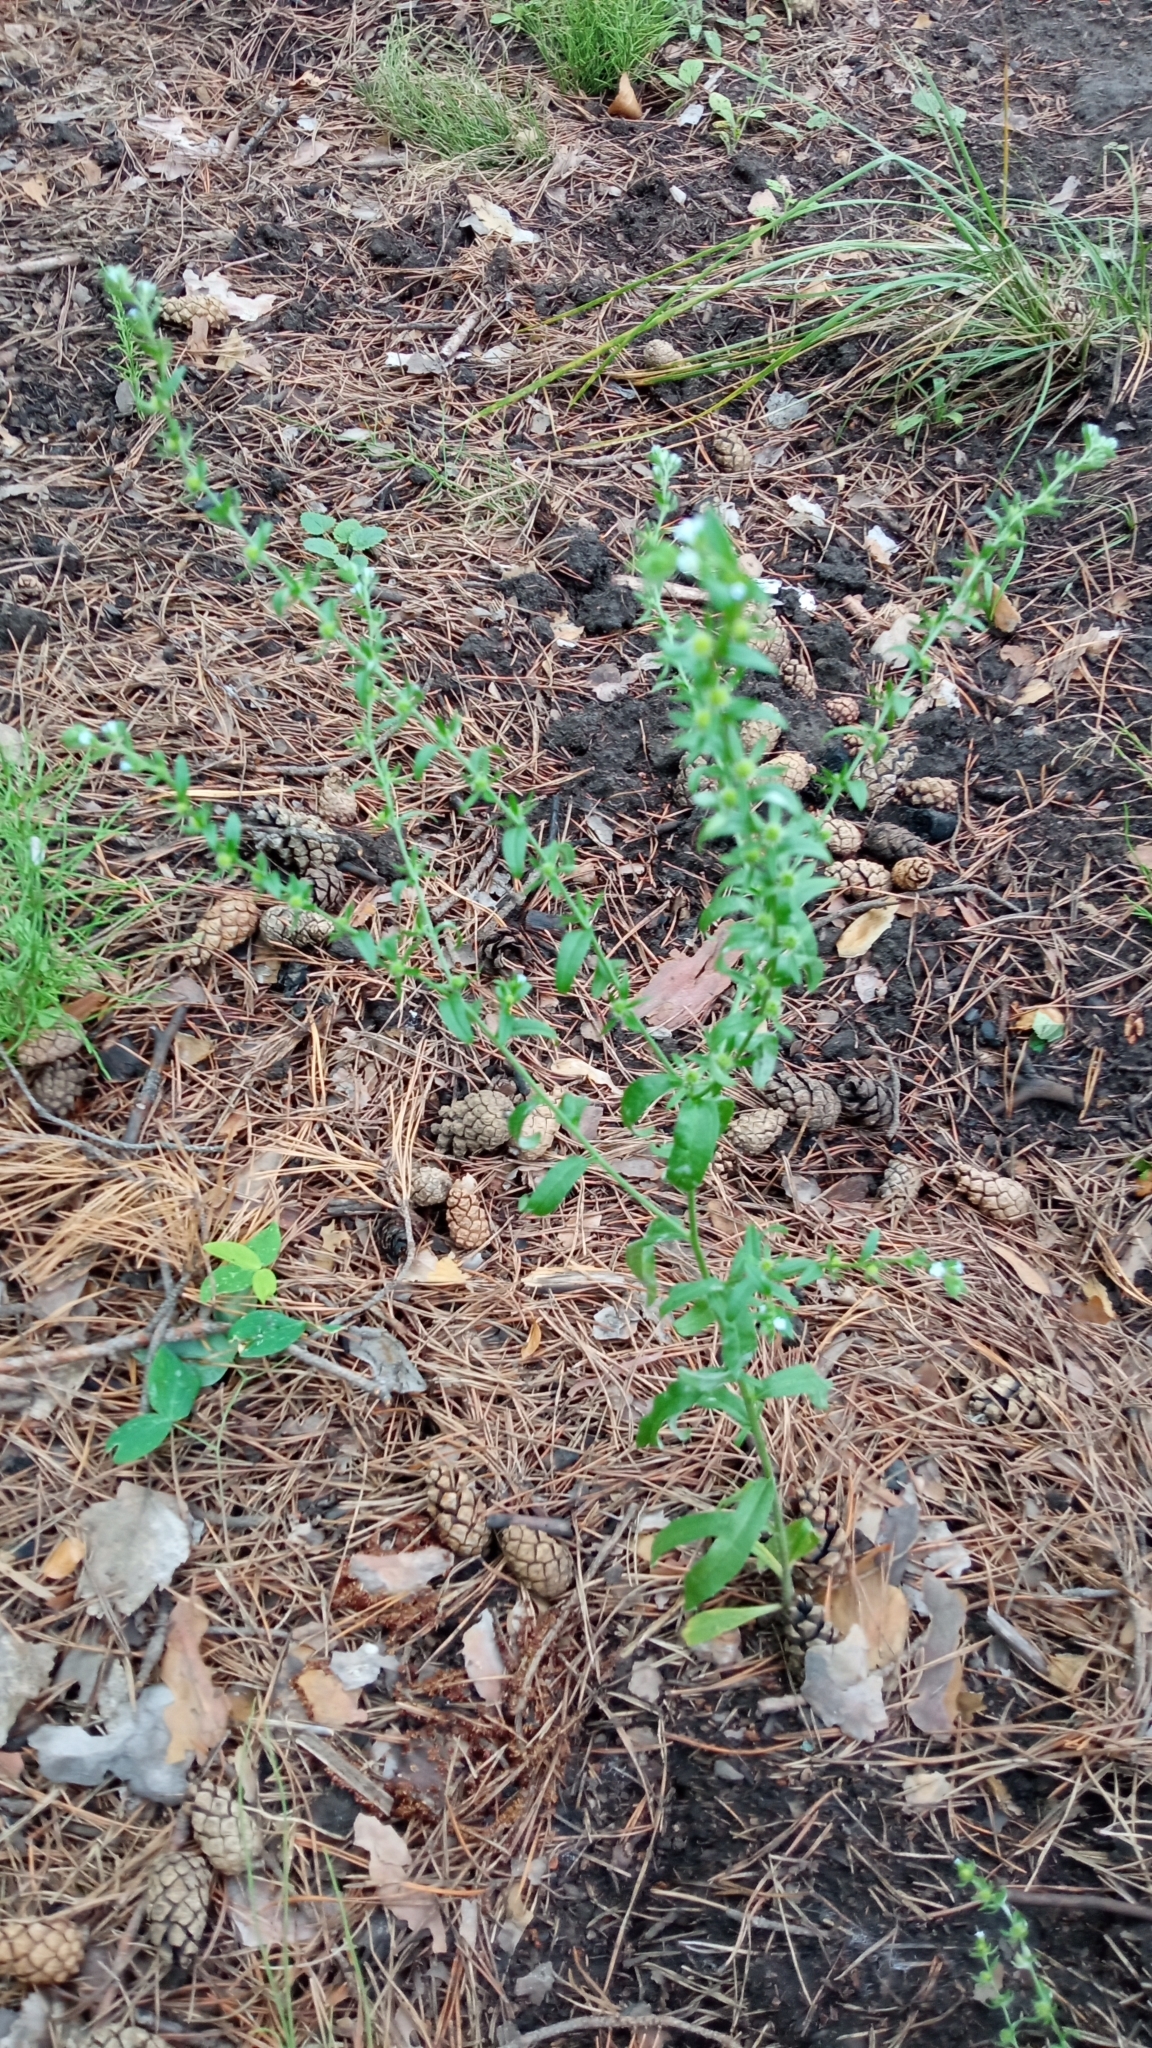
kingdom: Plantae
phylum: Tracheophyta
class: Magnoliopsida
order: Boraginales
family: Boraginaceae
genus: Lappula
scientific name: Lappula squarrosa
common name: European stickseed
